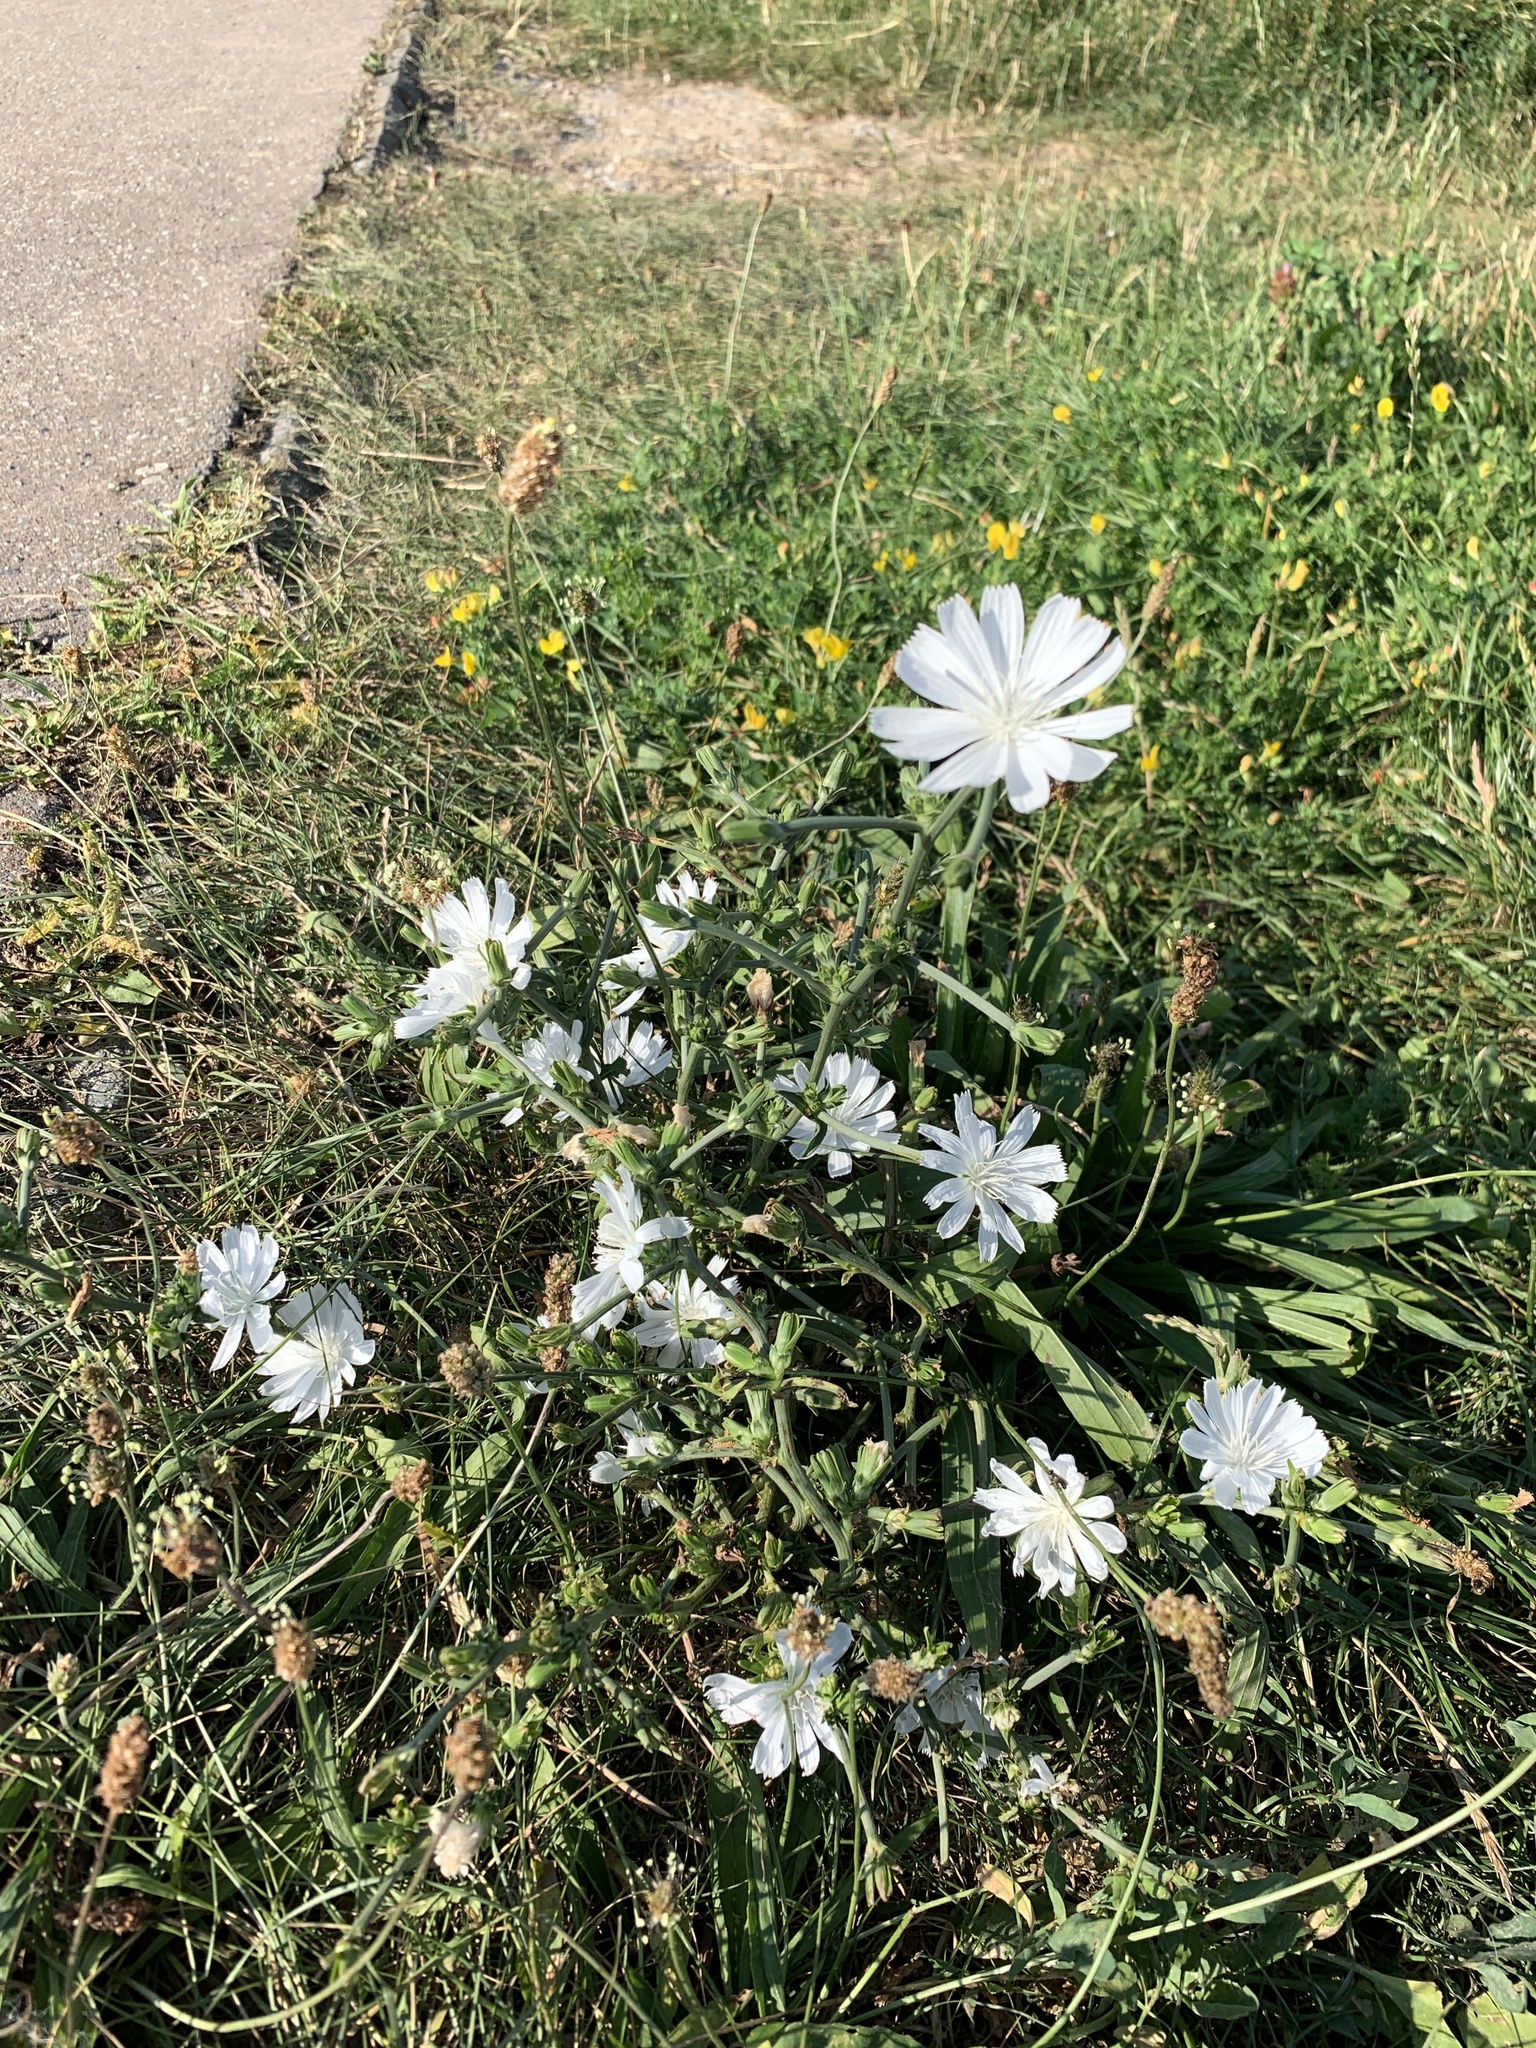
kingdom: Plantae
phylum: Tracheophyta
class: Magnoliopsida
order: Asterales
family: Asteraceae
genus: Cichorium
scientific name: Cichorium intybus
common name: Chicory
